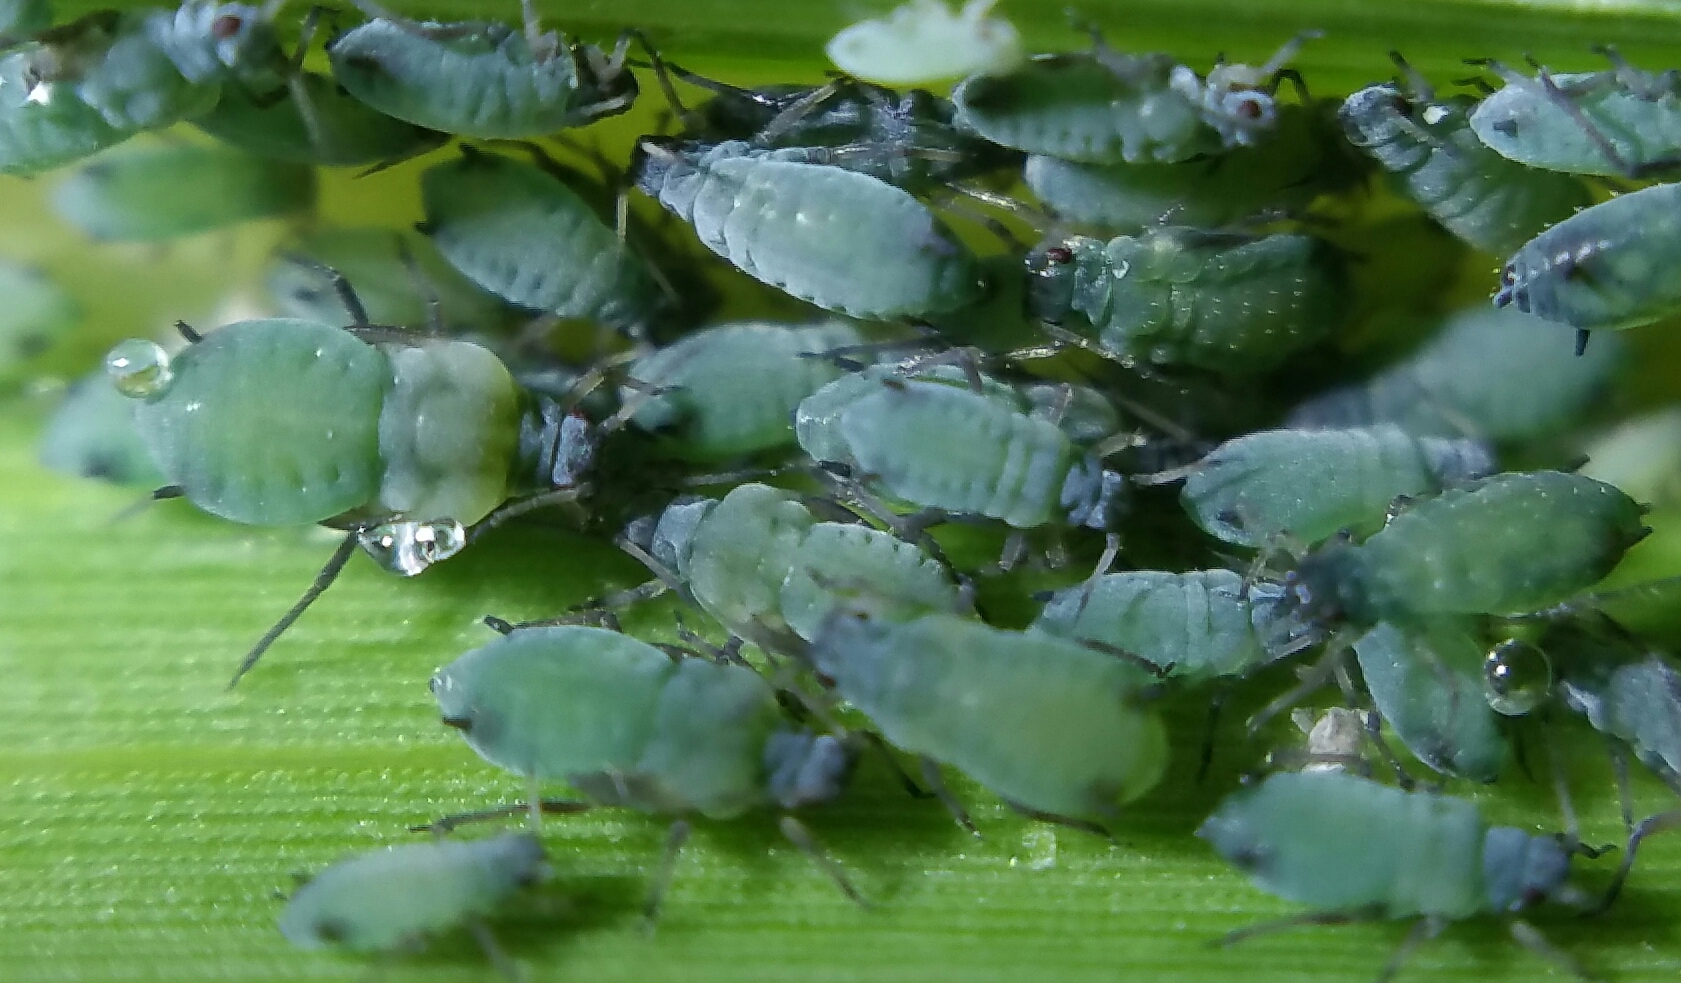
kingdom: Animalia
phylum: Arthropoda
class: Insecta
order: Hemiptera
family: Aphididae
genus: Rhopalosiphum
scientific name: Rhopalosiphum maidis
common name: Corn leaf aphid
